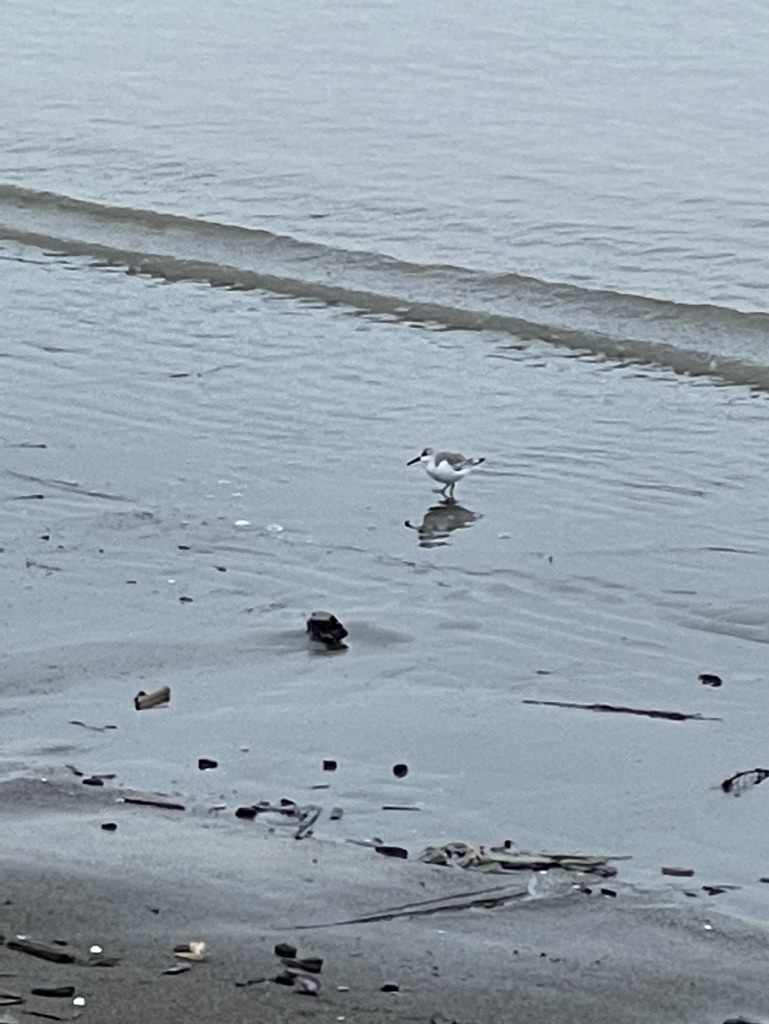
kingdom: Animalia
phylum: Chordata
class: Aves
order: Charadriiformes
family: Scolopacidae
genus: Calidris
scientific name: Calidris alba
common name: Sanderling
